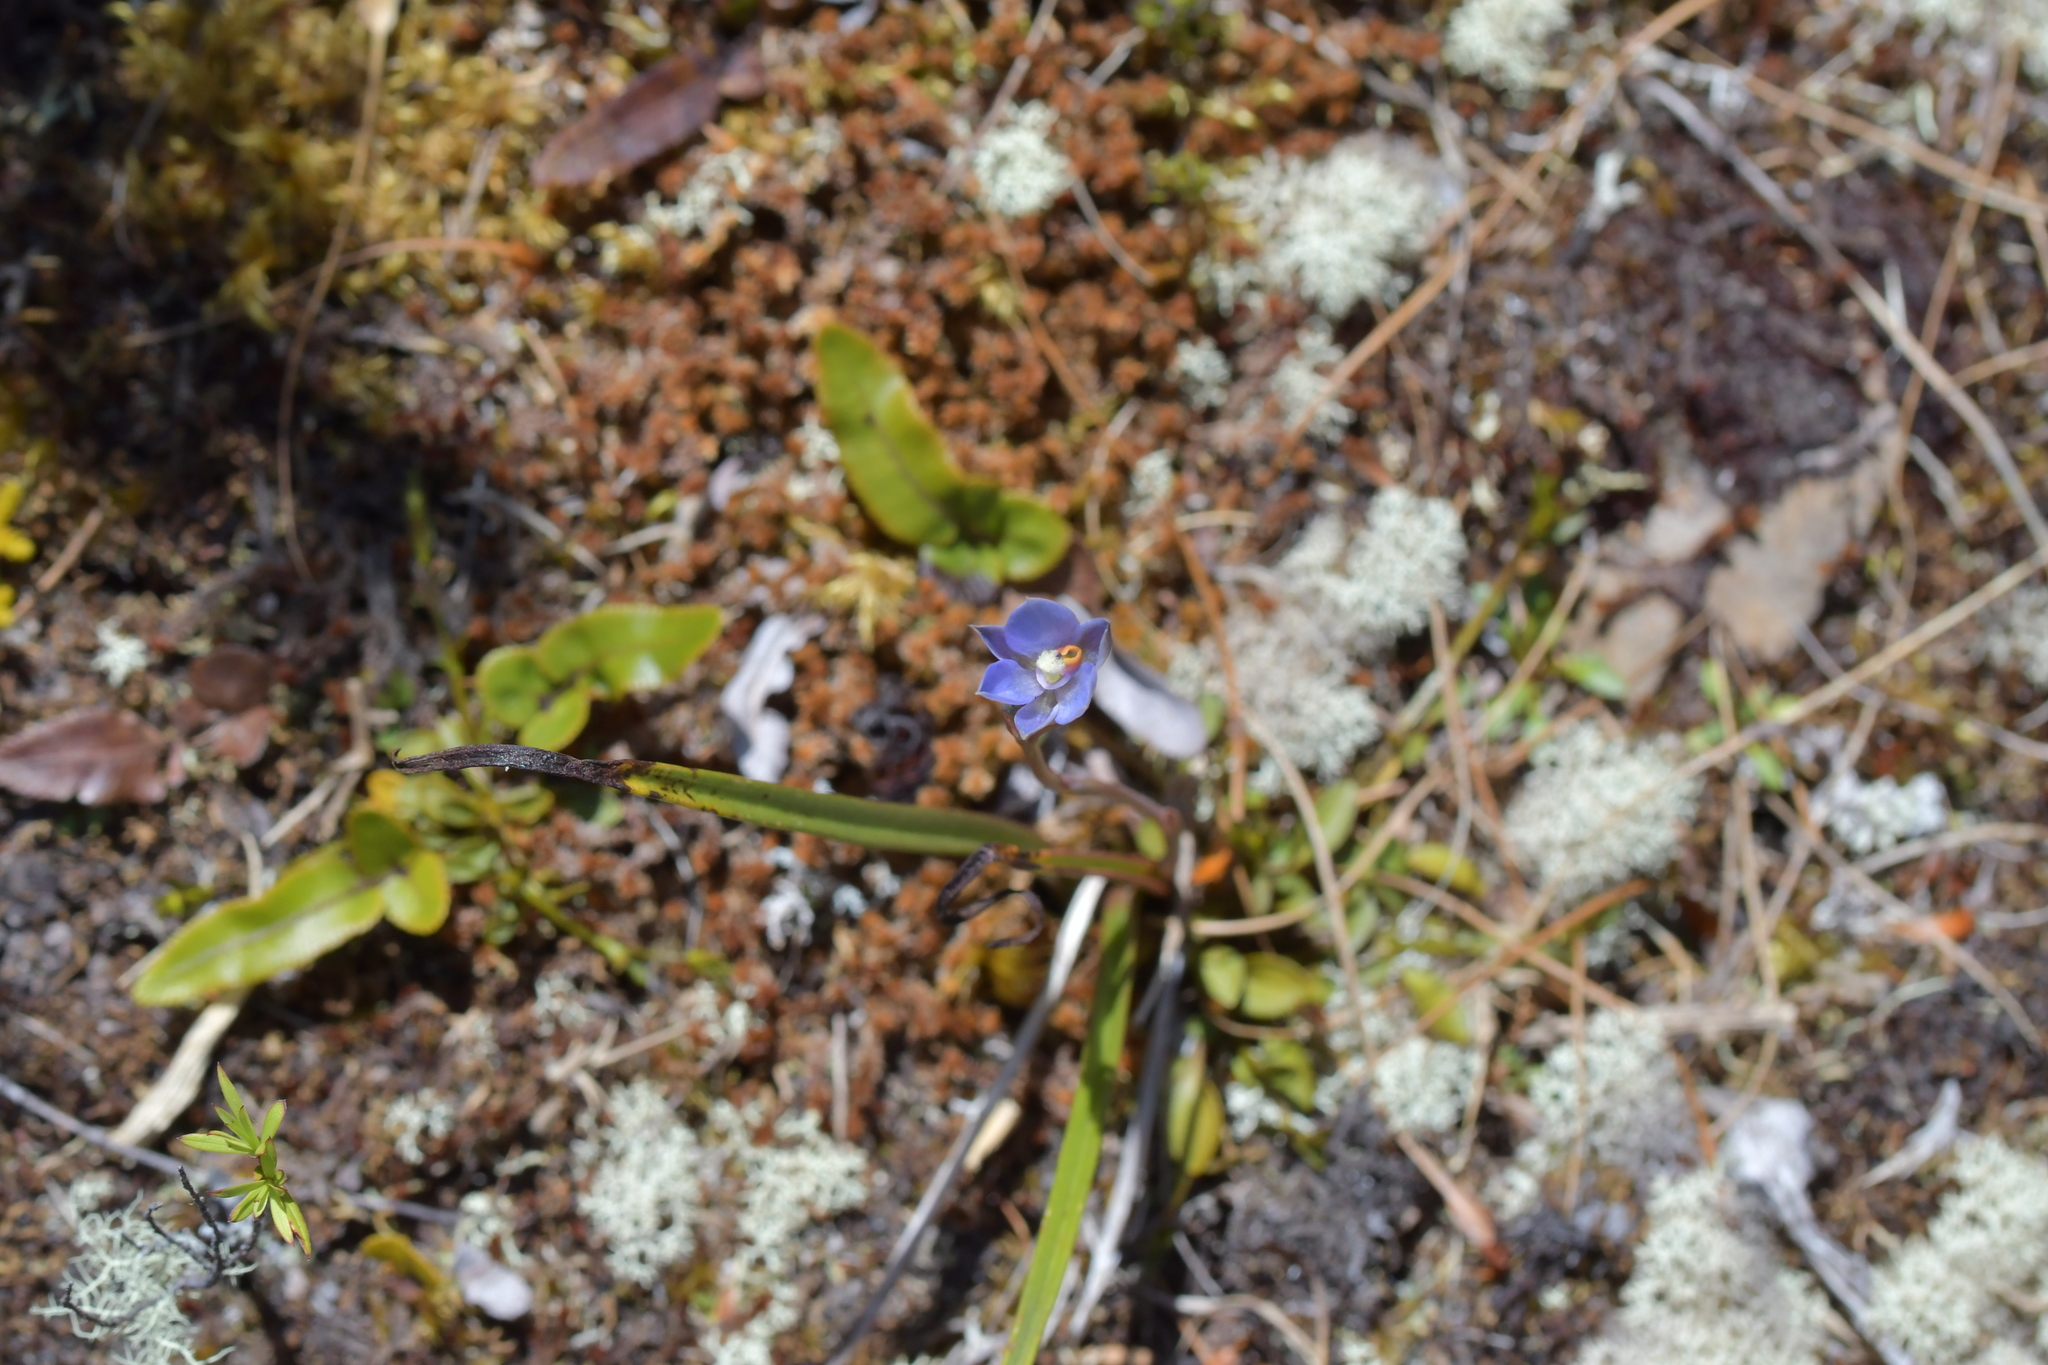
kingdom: Plantae
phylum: Tracheophyta
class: Liliopsida
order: Asparagales
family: Orchidaceae
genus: Thelymitra
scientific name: Thelymitra hatchii
